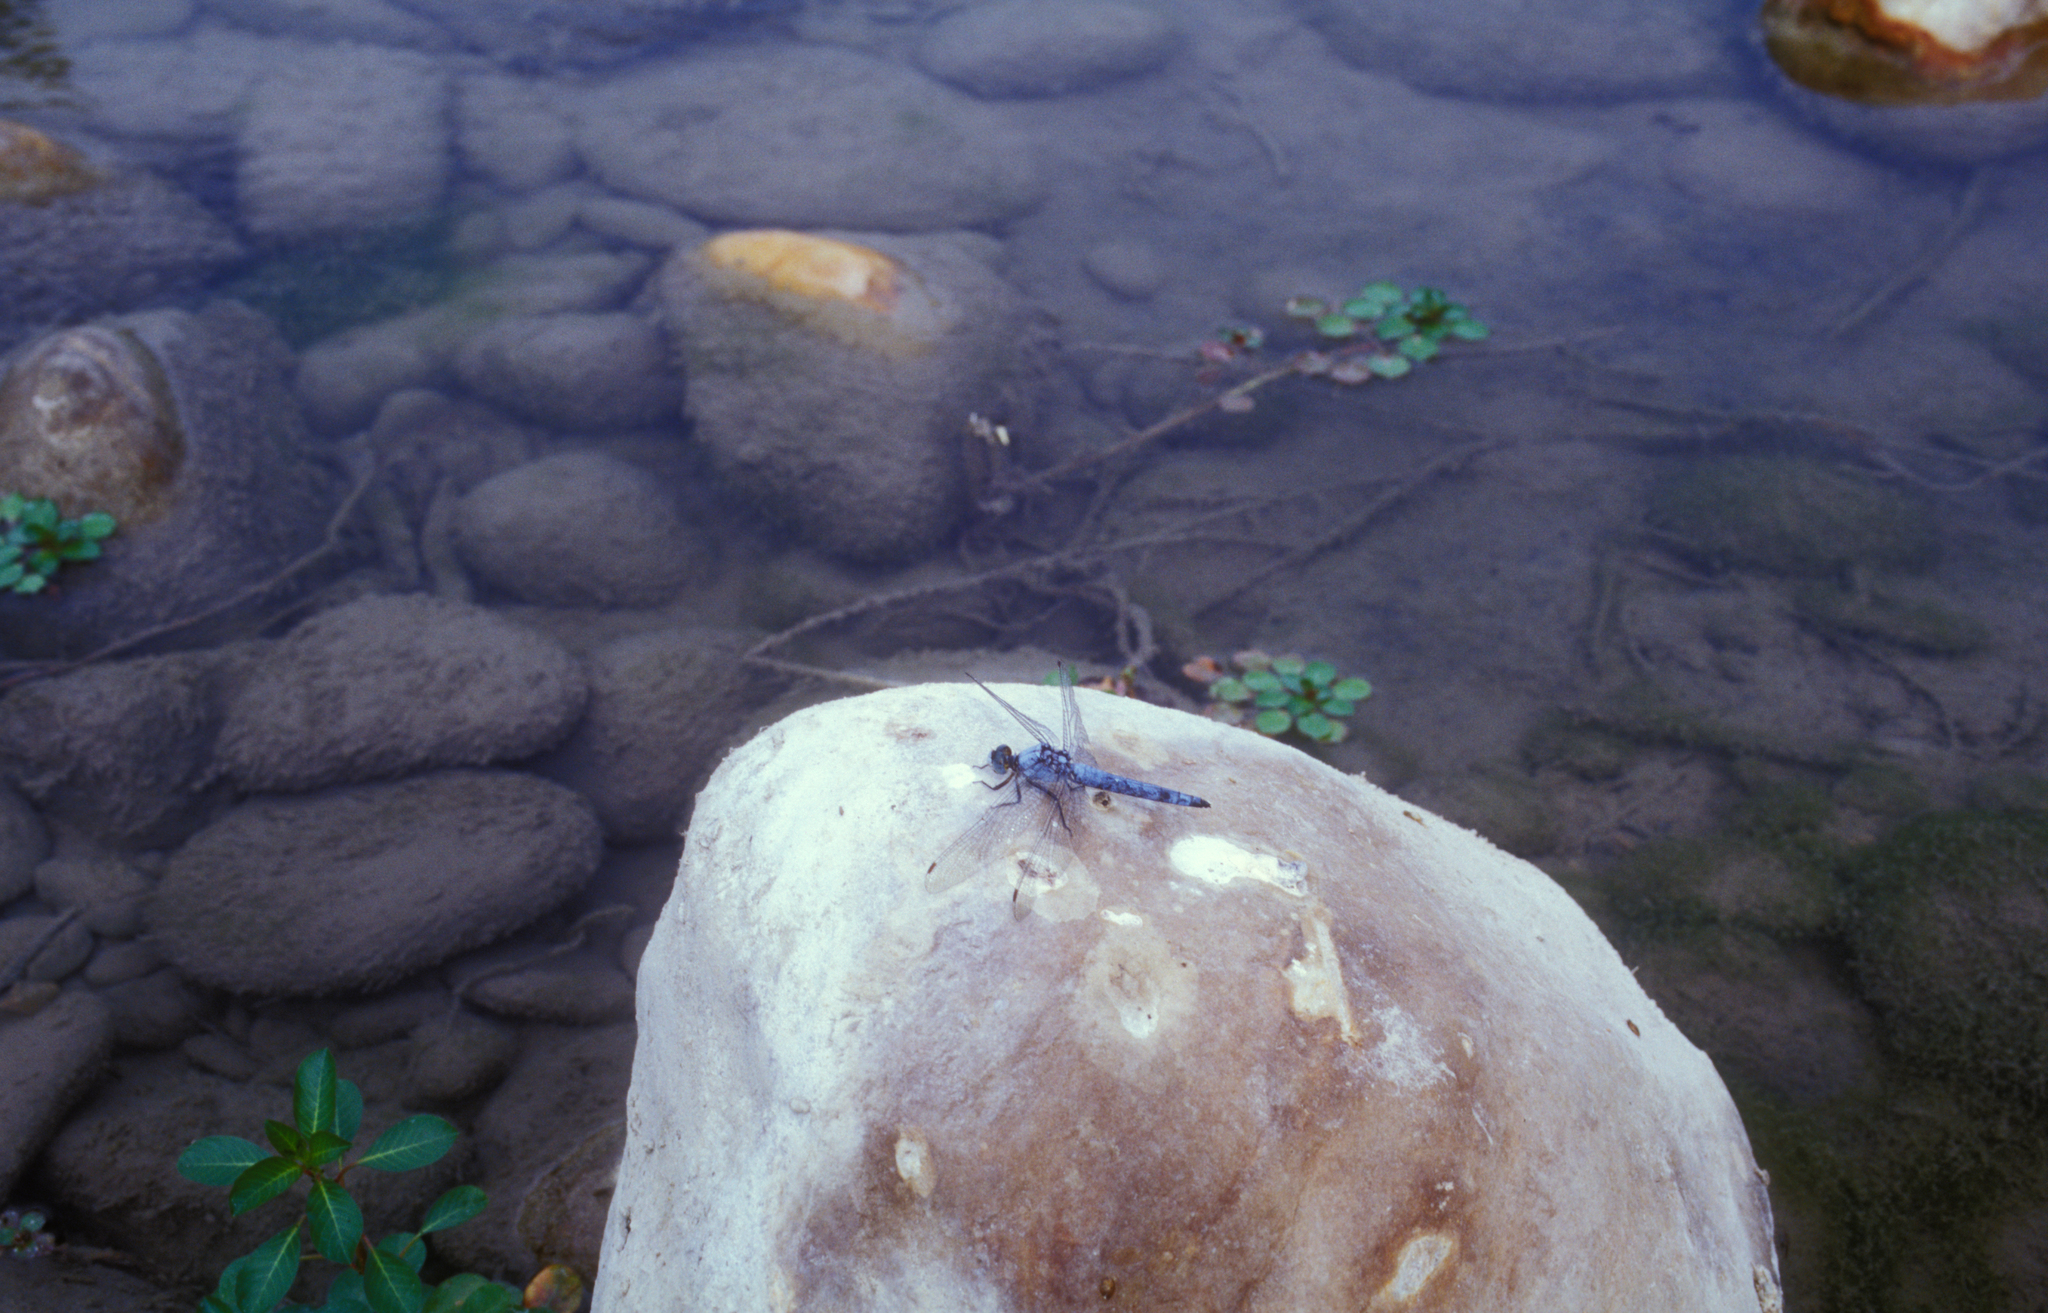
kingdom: Animalia
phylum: Arthropoda
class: Insecta
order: Odonata
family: Libellulidae
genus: Orthetrum
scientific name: Orthetrum brunneum
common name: Southern skimmer
